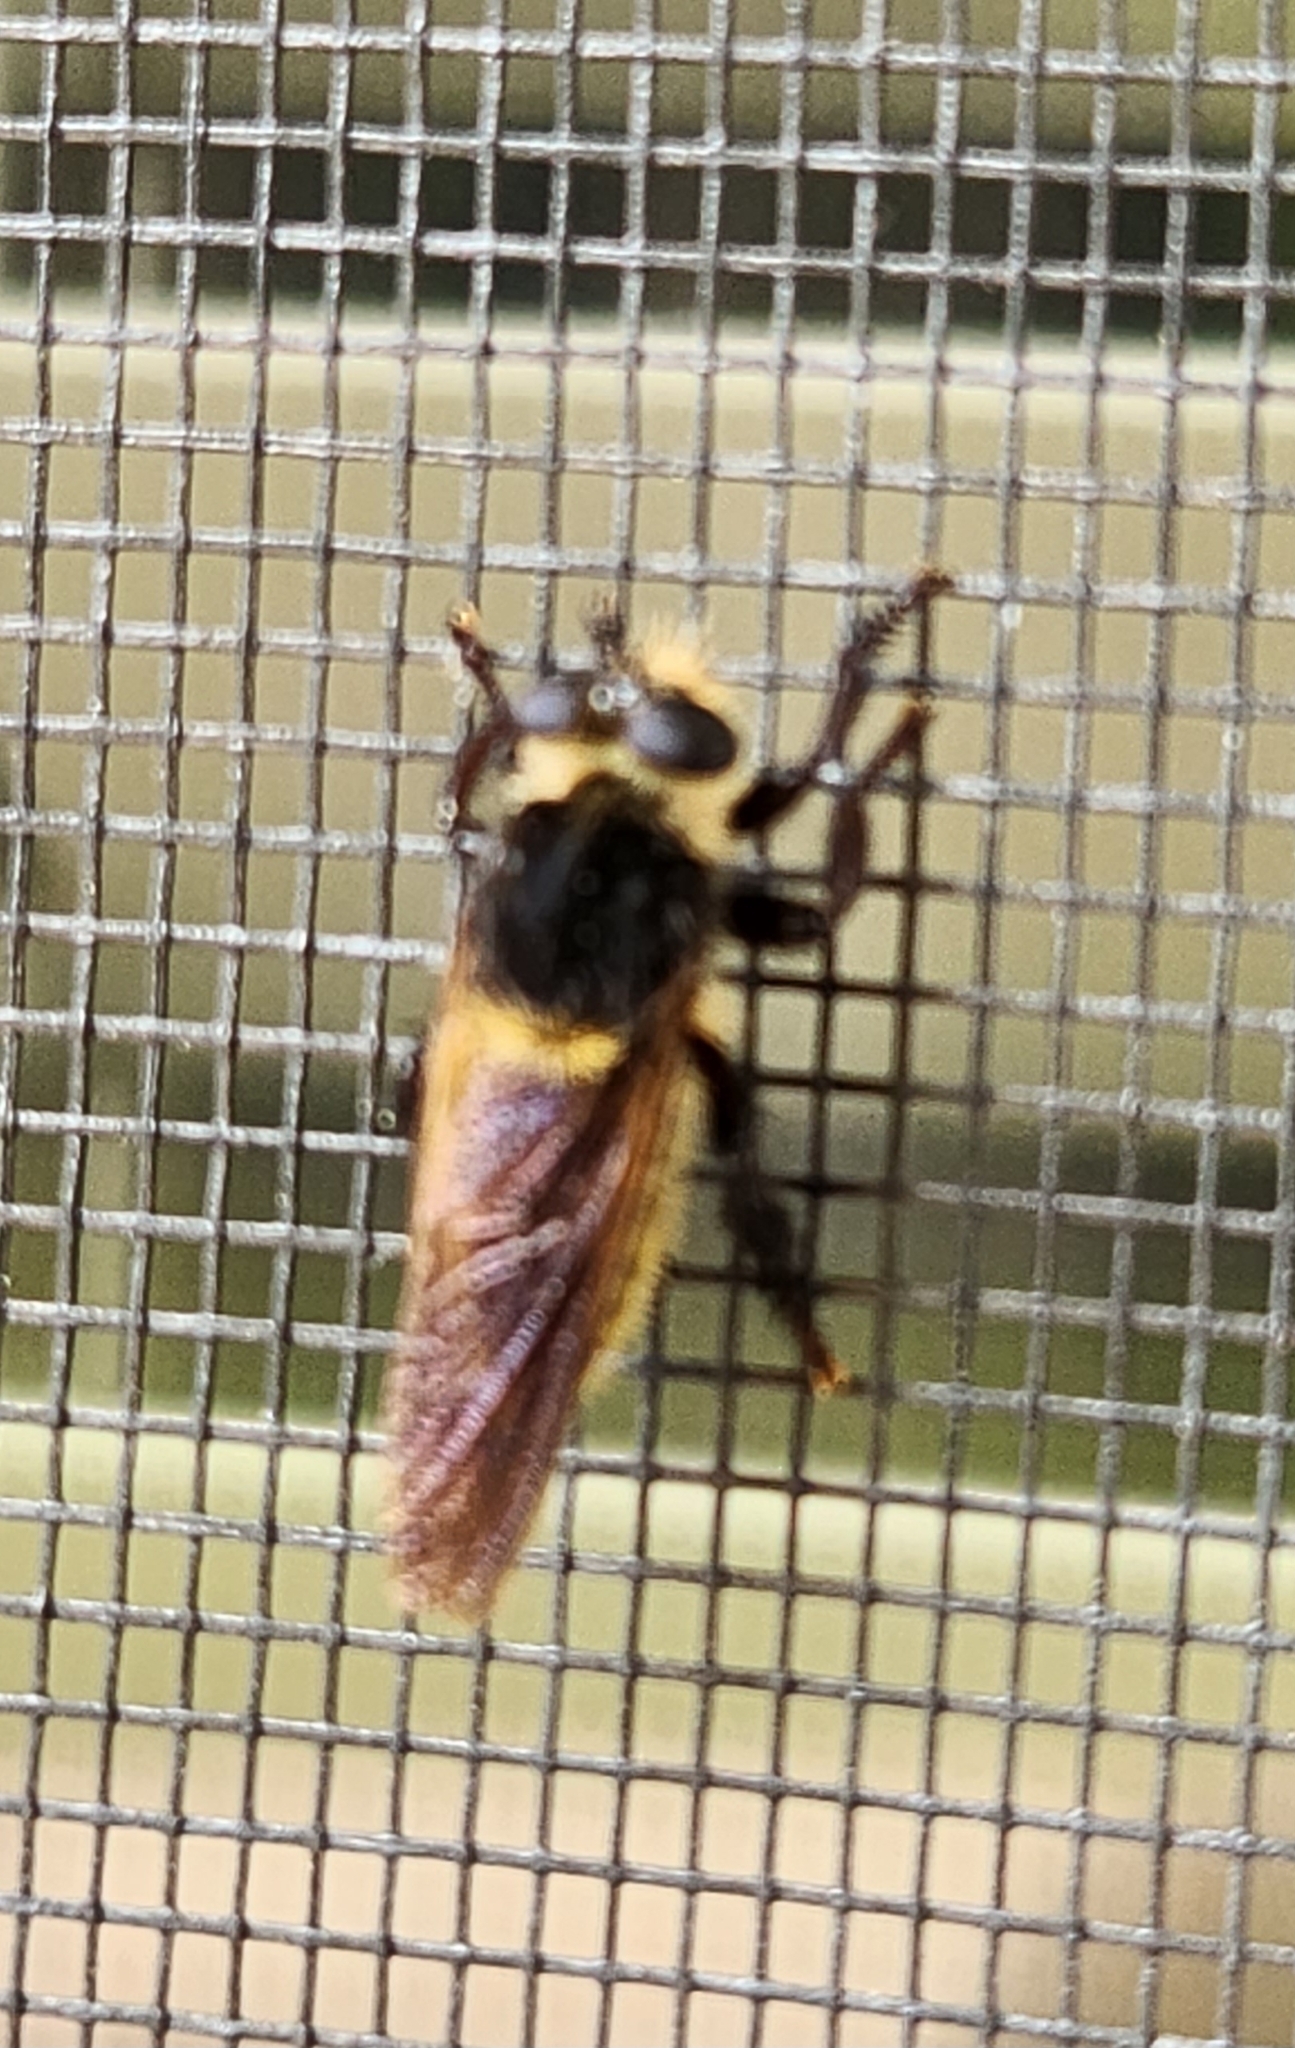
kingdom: Animalia
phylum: Arthropoda
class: Insecta
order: Diptera
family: Asilidae
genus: Mallophora
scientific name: Mallophora fautrix
